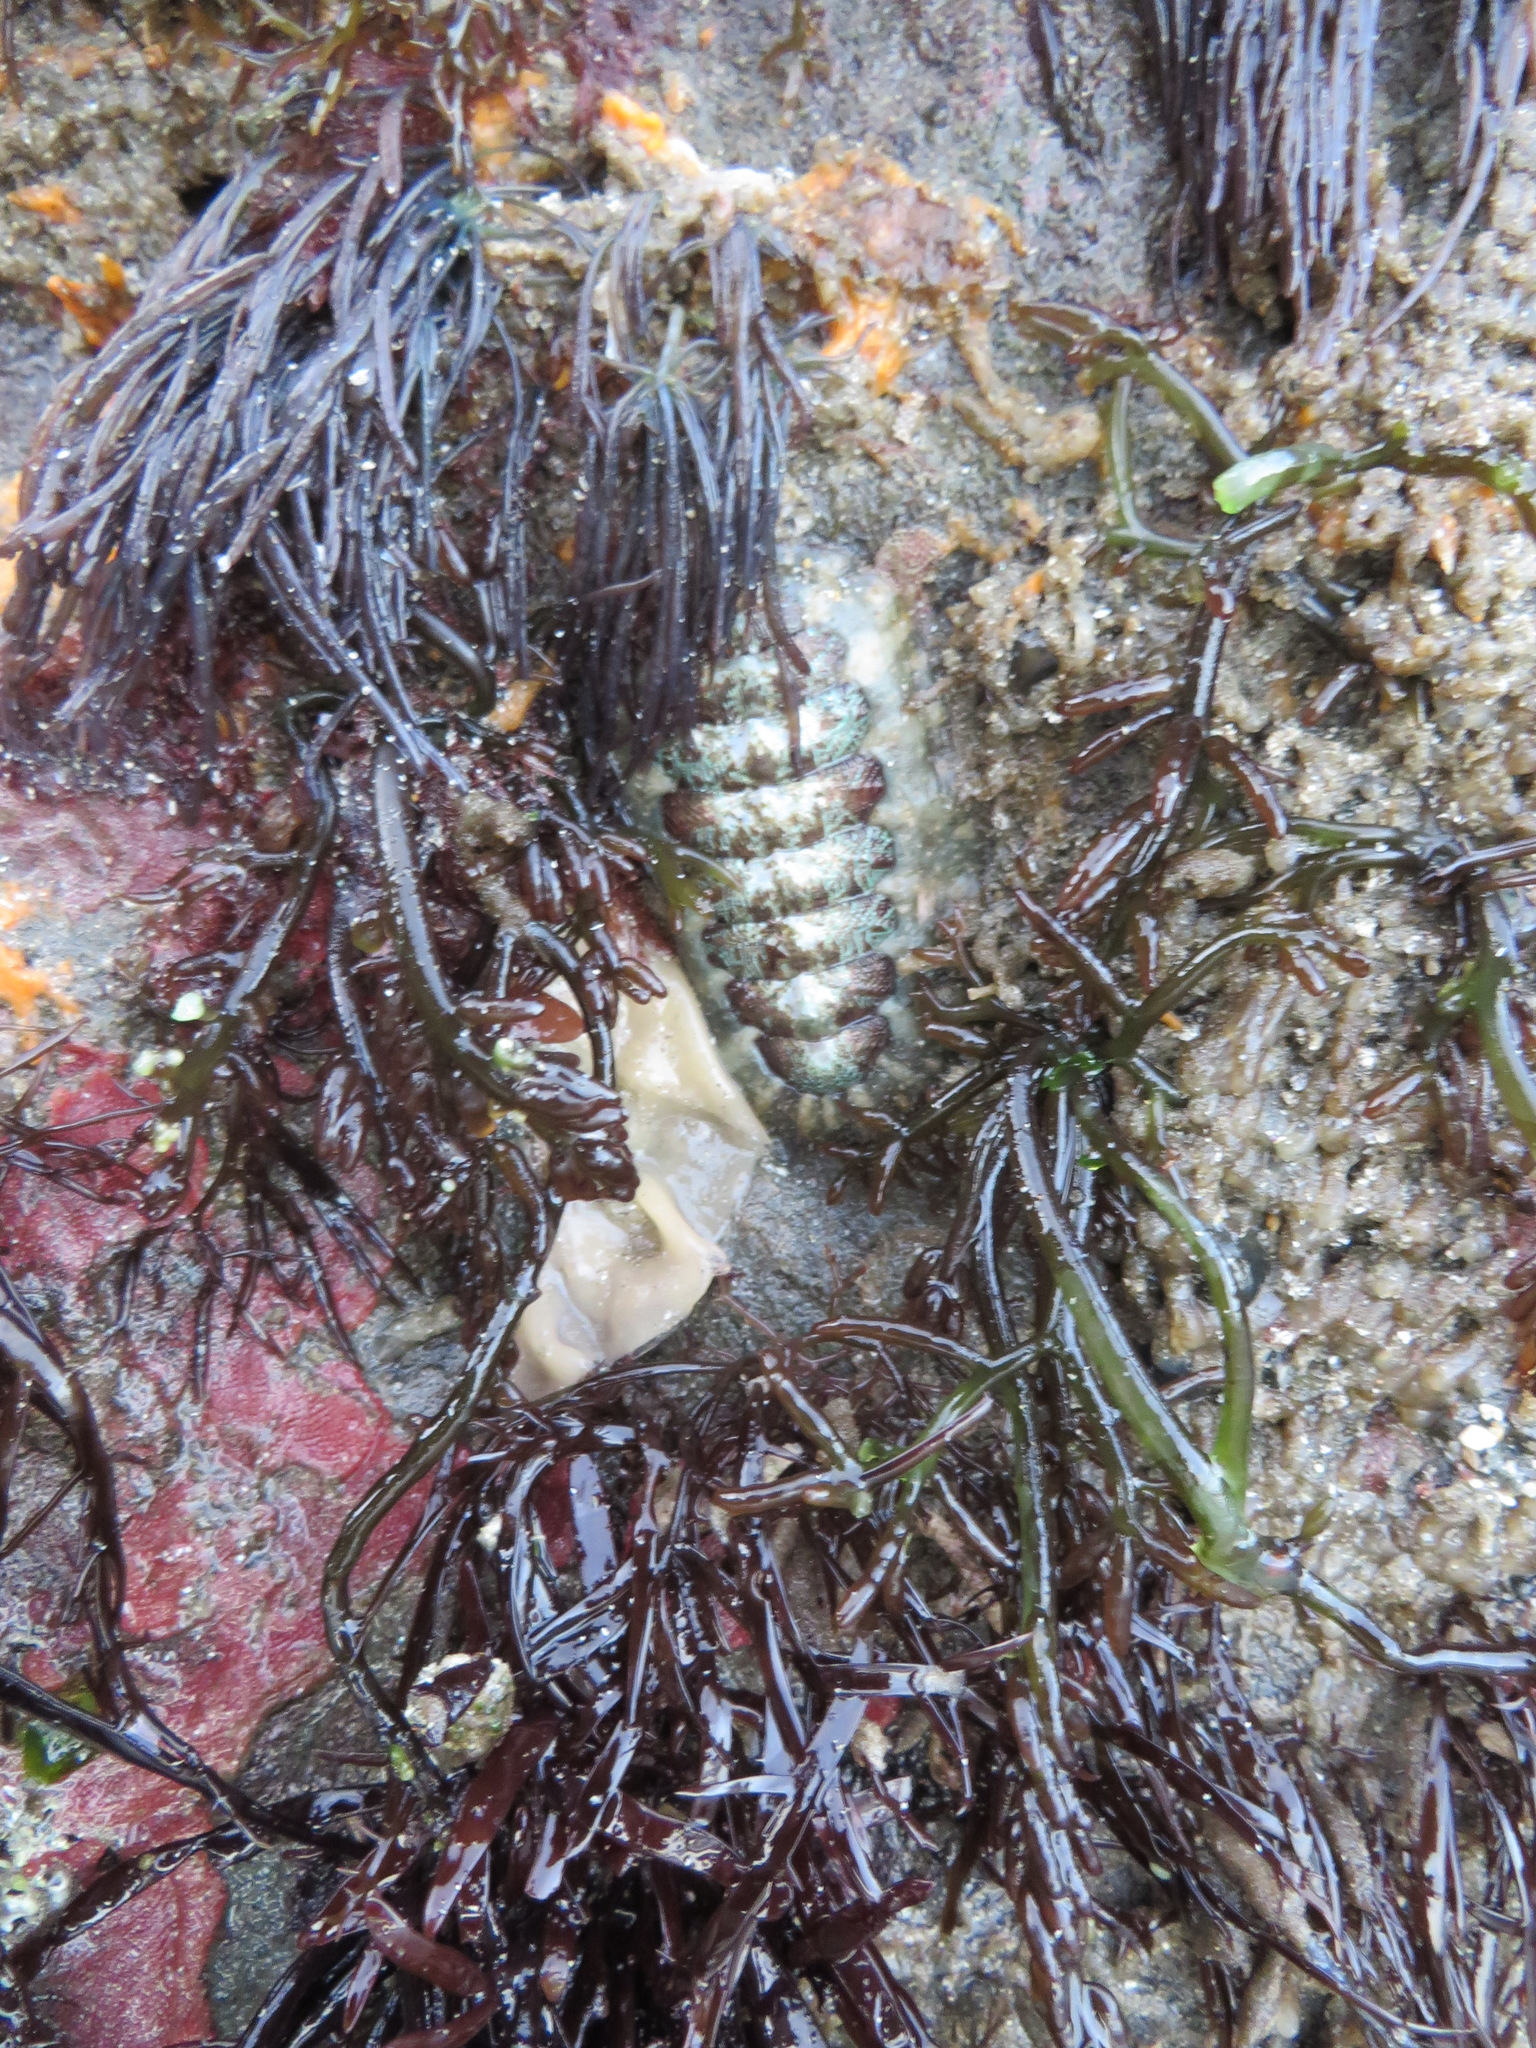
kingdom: Animalia
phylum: Mollusca
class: Polyplacophora
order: Chitonida
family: Tonicellidae
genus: Cyanoplax
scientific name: Cyanoplax dentiens
